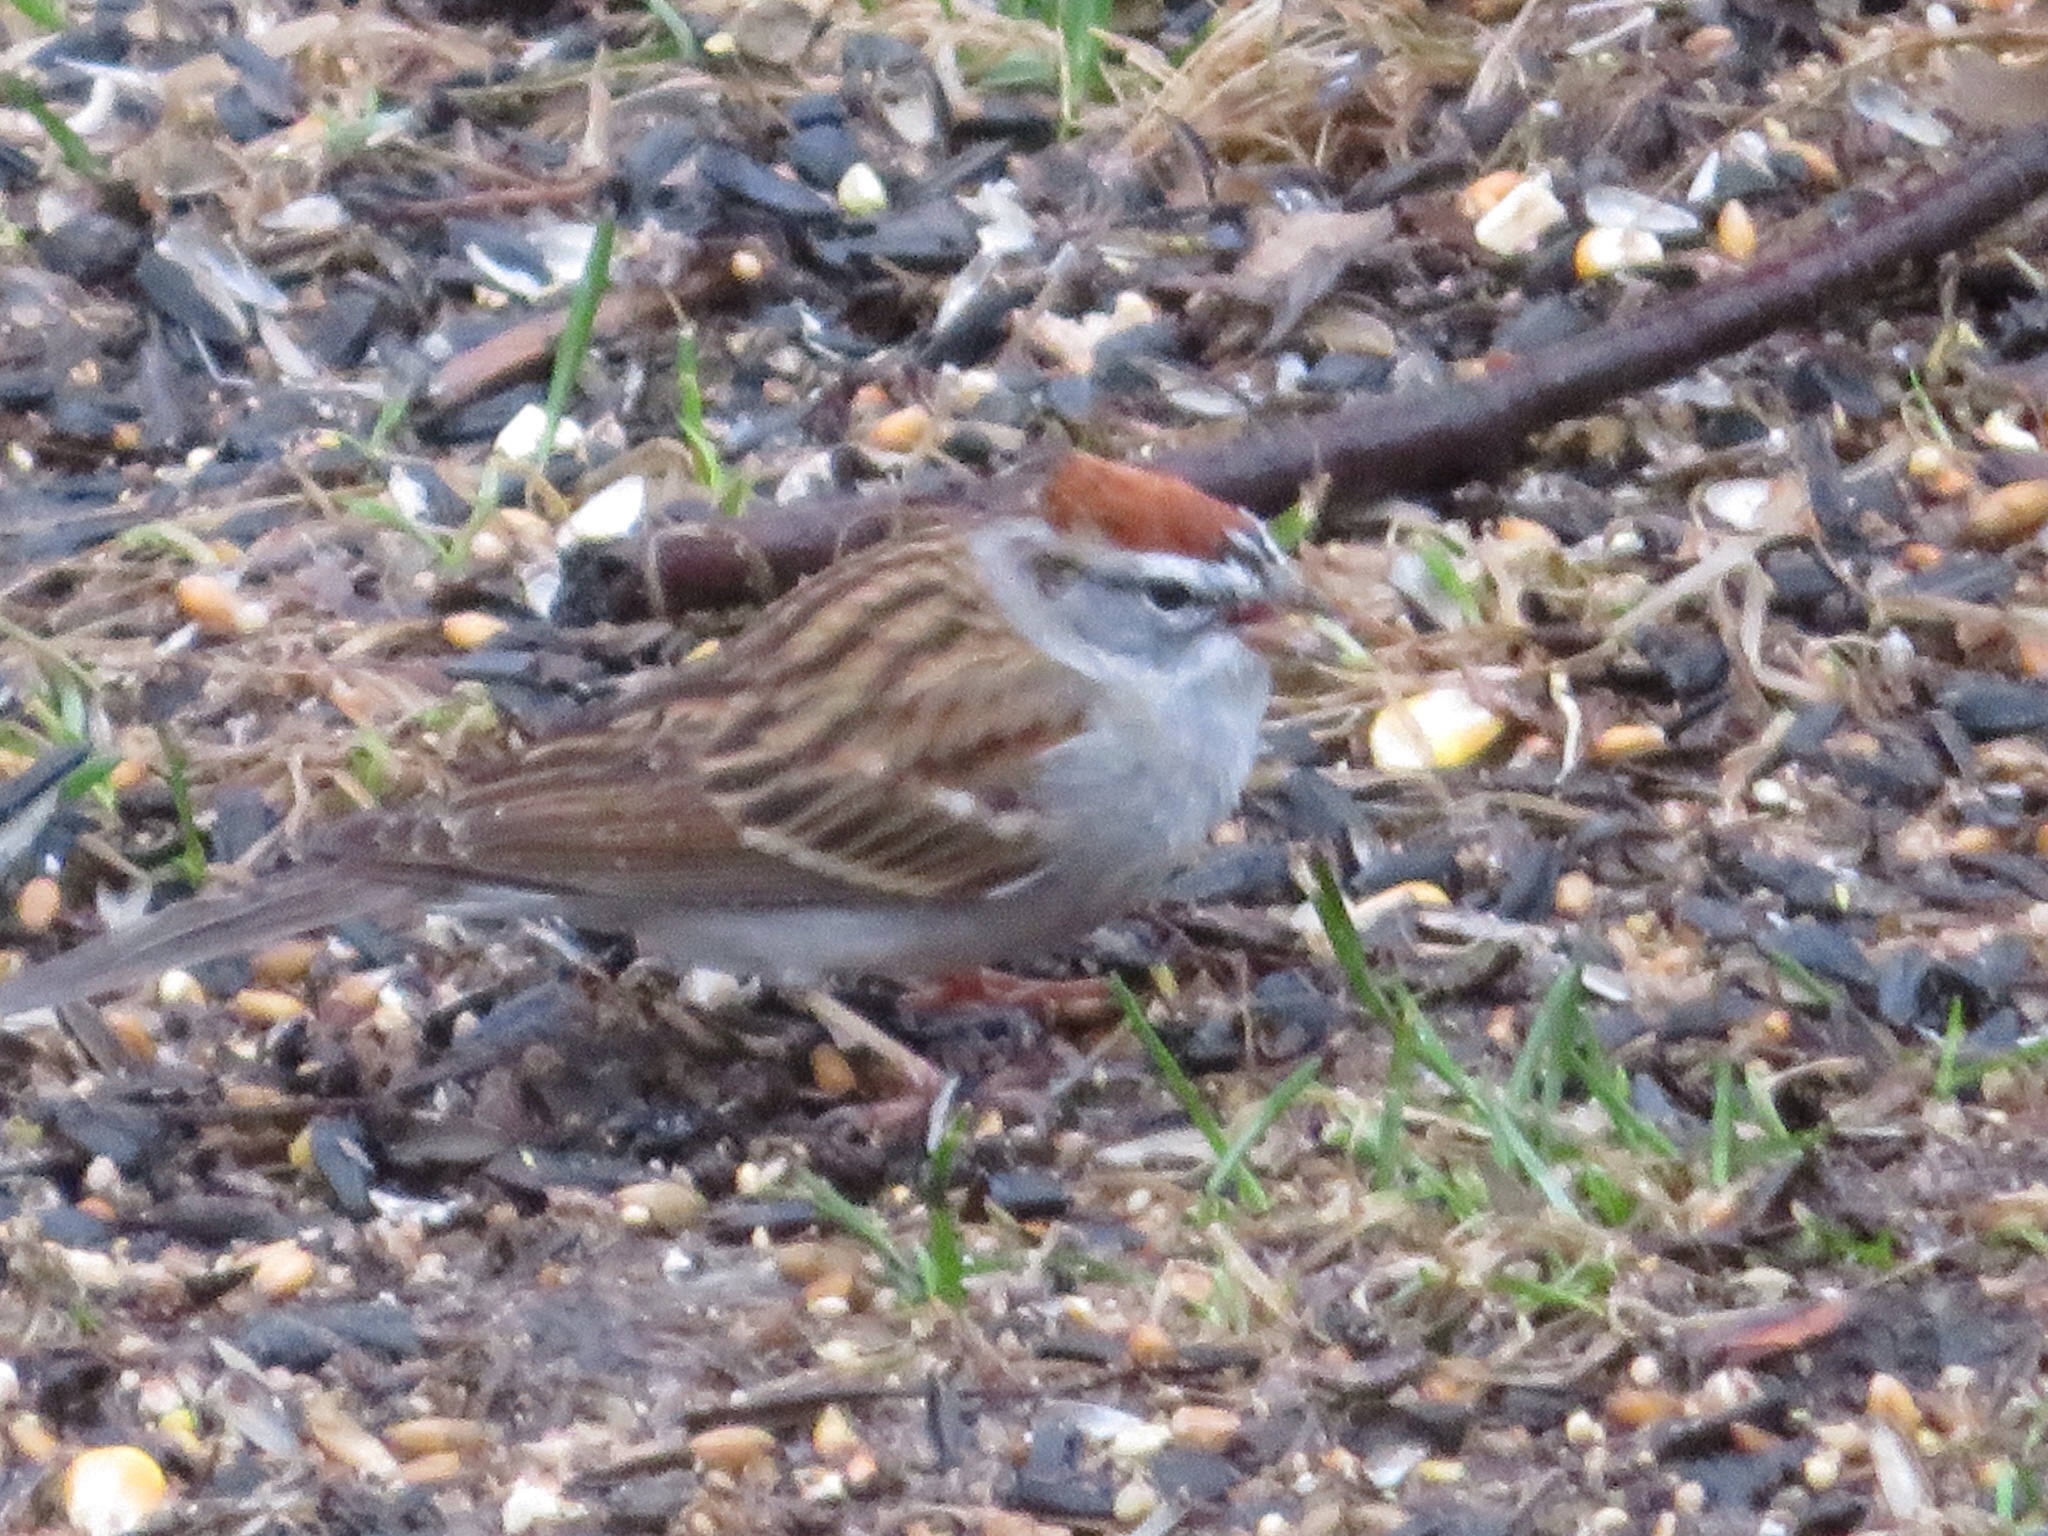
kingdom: Animalia
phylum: Chordata
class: Aves
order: Passeriformes
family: Passerellidae
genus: Spizella
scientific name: Spizella passerina
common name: Chipping sparrow
